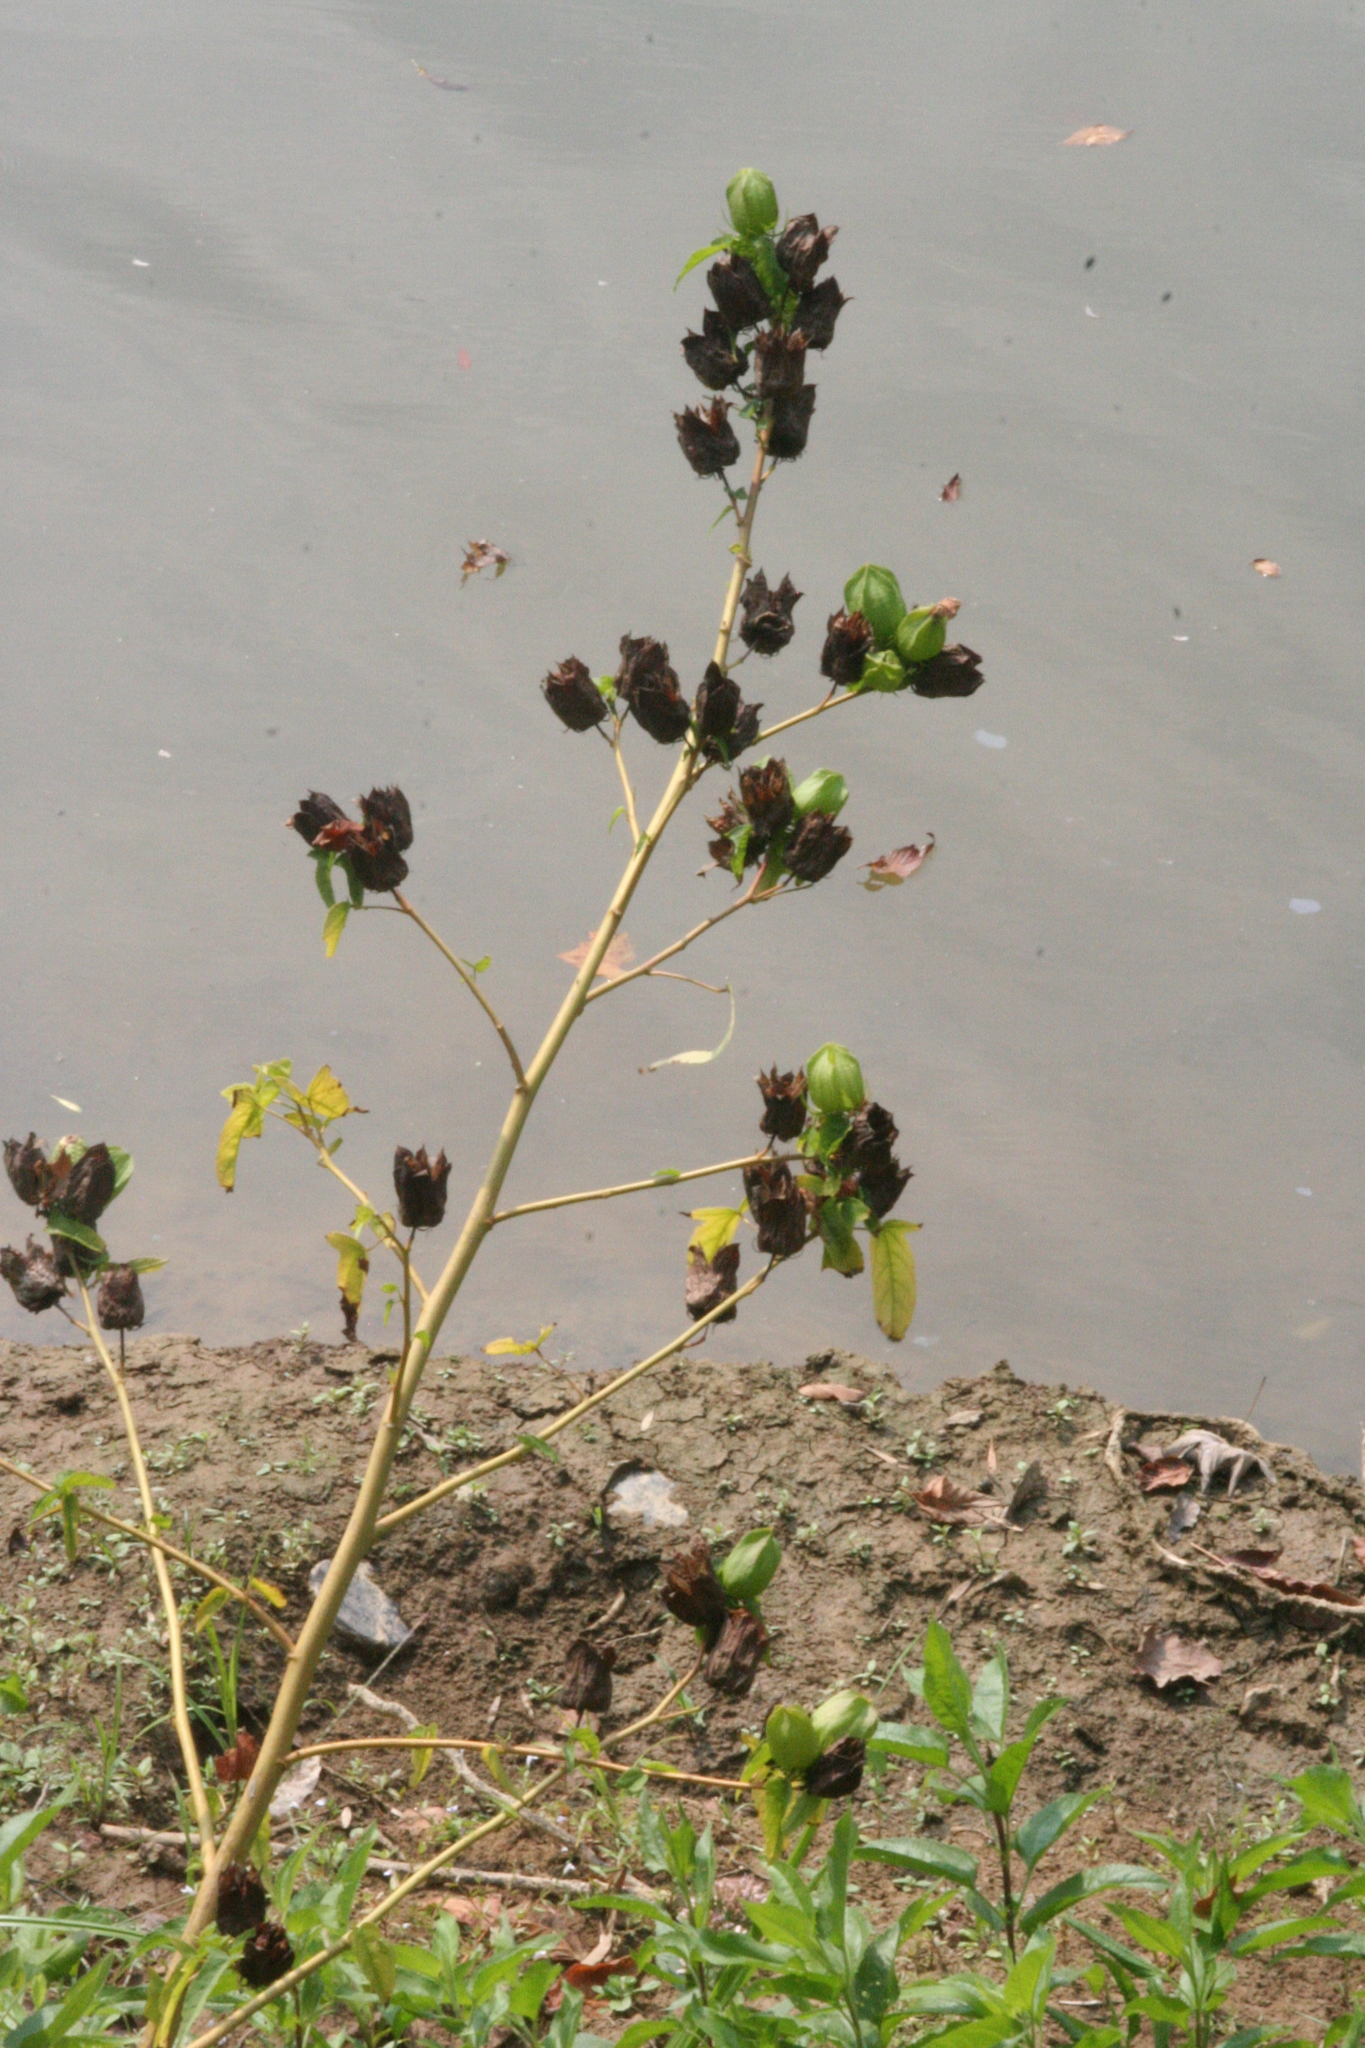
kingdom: Plantae
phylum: Tracheophyta
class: Magnoliopsida
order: Malvales
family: Malvaceae
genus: Hibiscus
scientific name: Hibiscus laevis
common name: Scarlet rose-mallow
